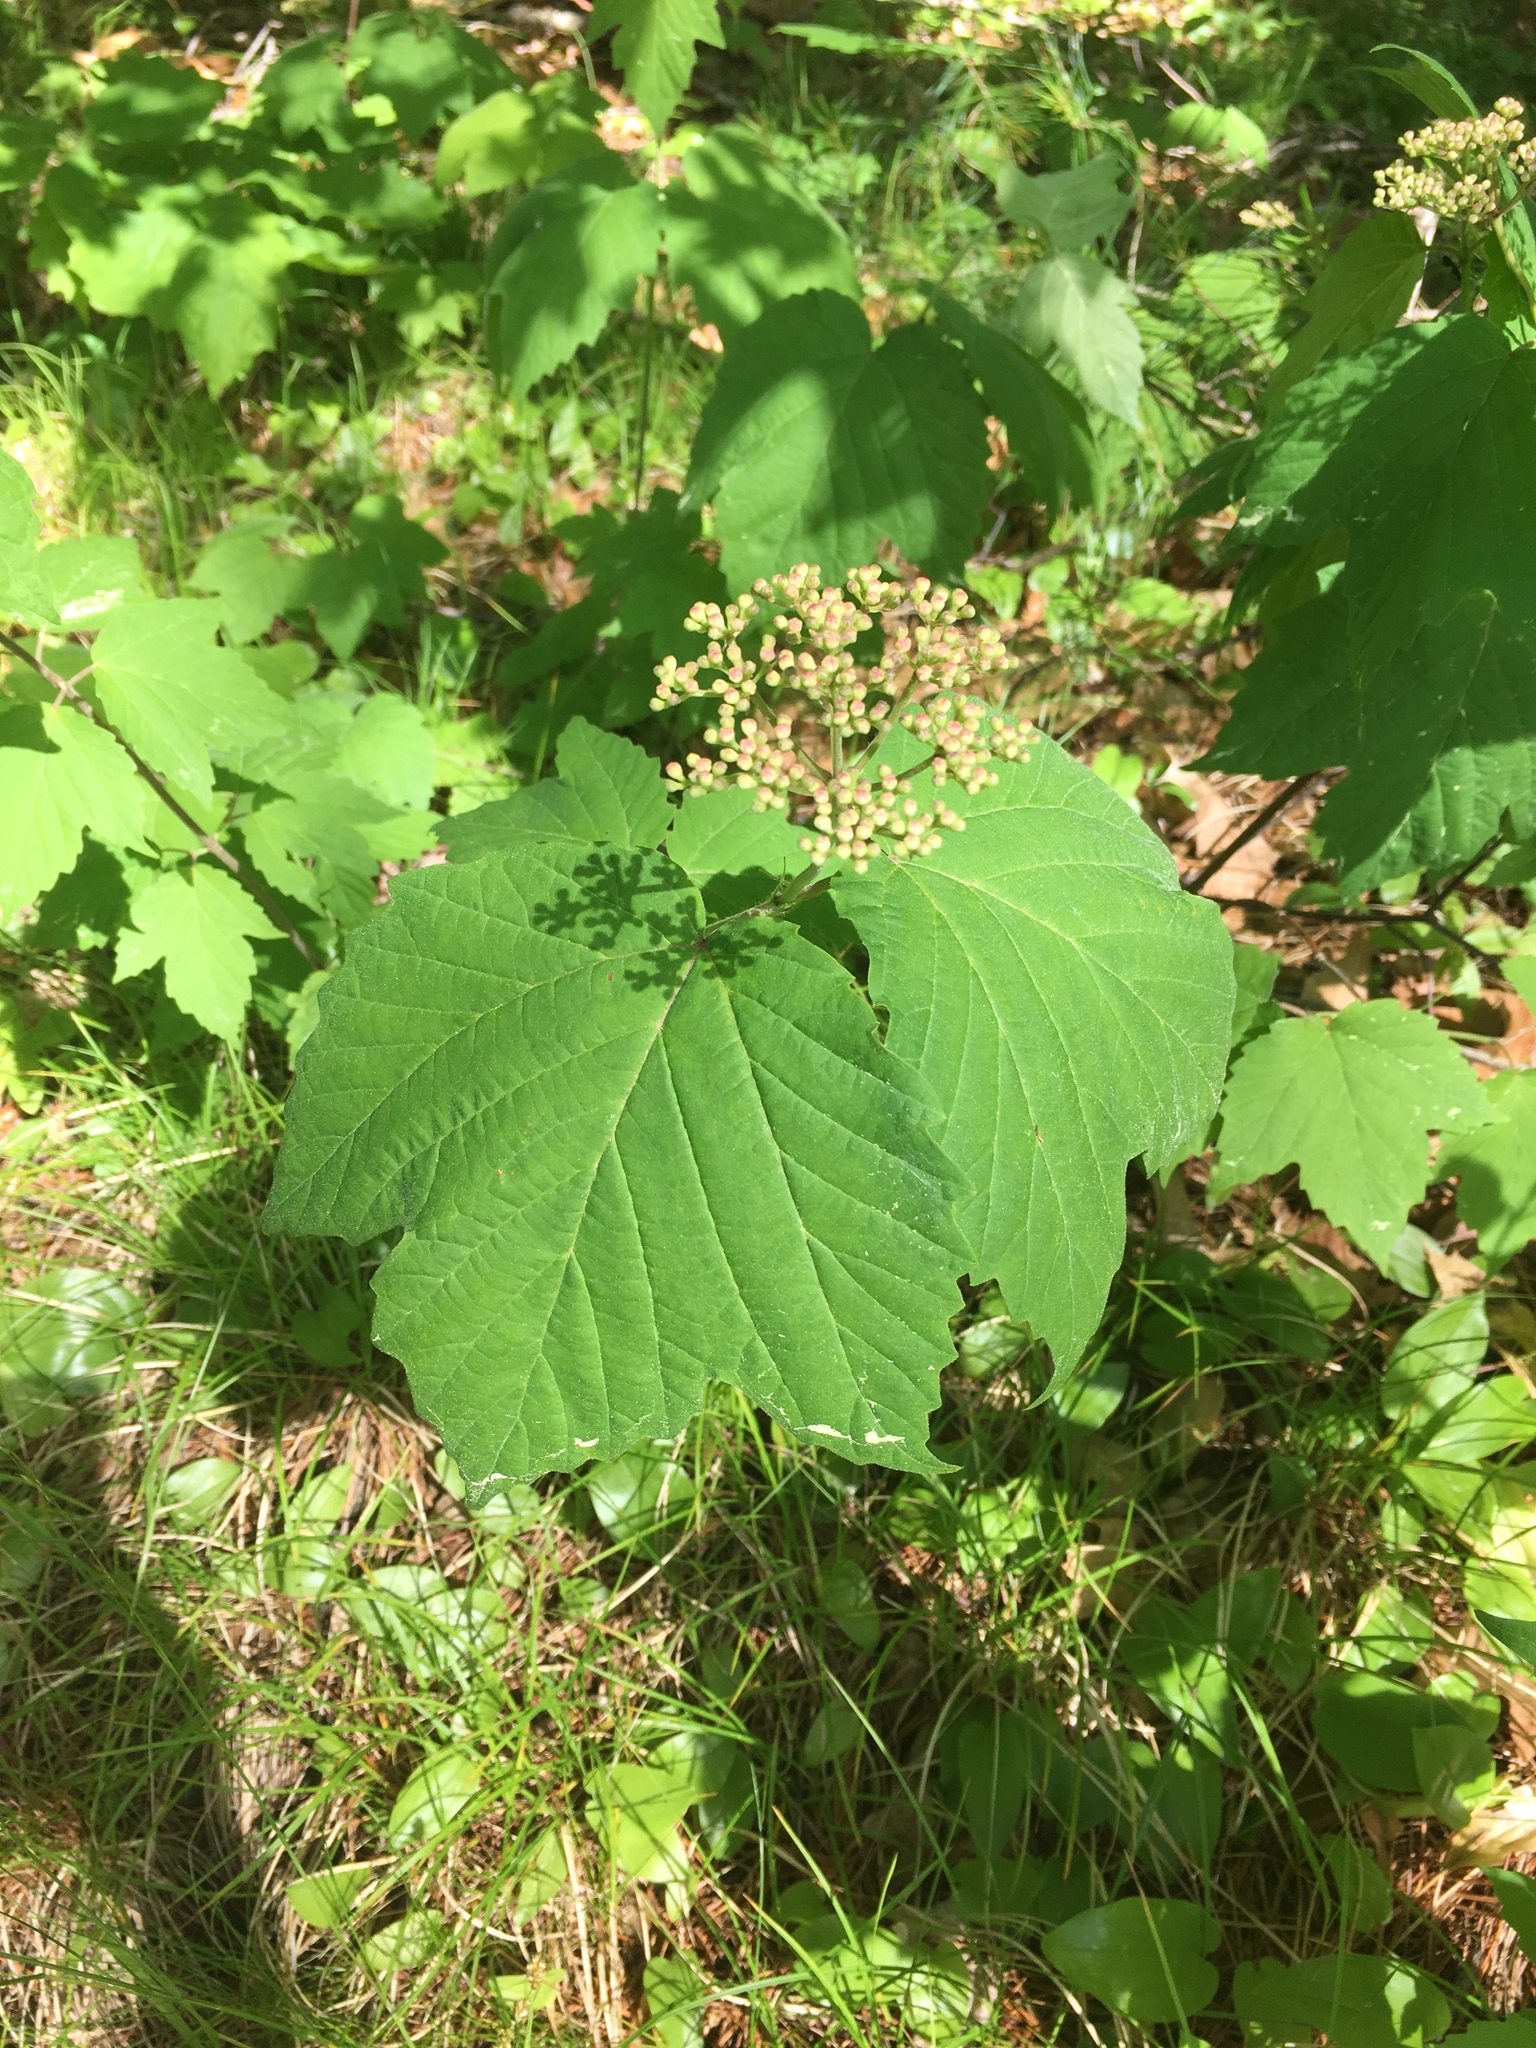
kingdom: Plantae
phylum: Tracheophyta
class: Magnoliopsida
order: Dipsacales
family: Viburnaceae
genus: Viburnum
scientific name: Viburnum acerifolium
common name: Dockmackie
